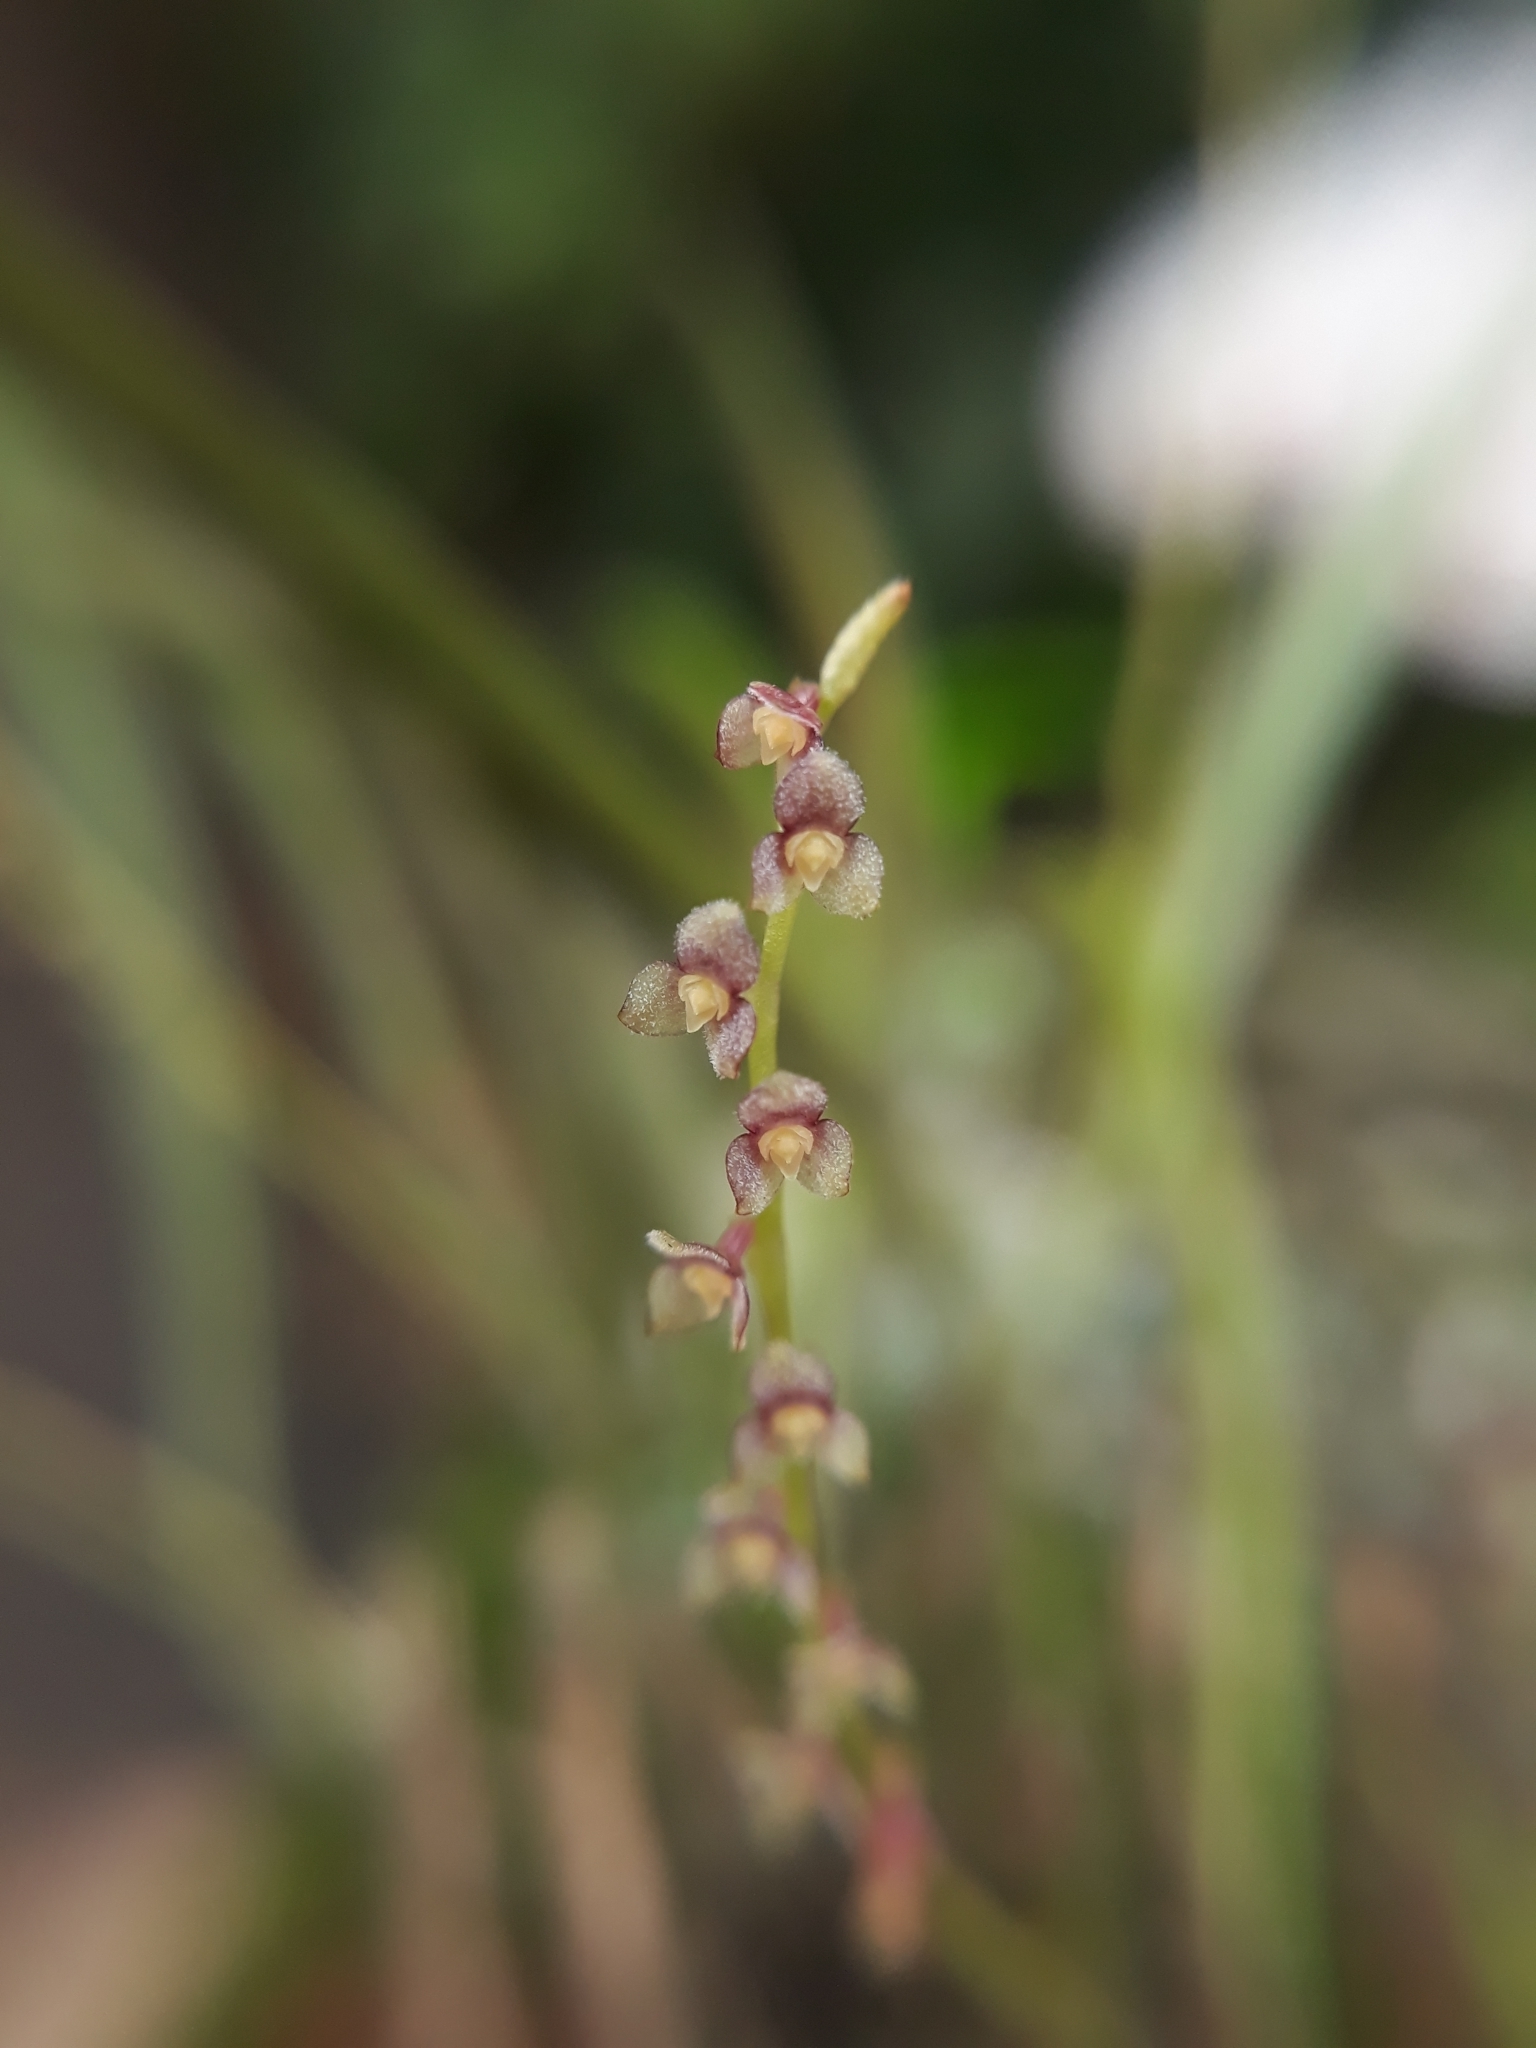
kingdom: Plantae
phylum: Tracheophyta
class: Liliopsida
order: Asparagales
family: Orchidaceae
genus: Stelis
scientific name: Stelis rubens
